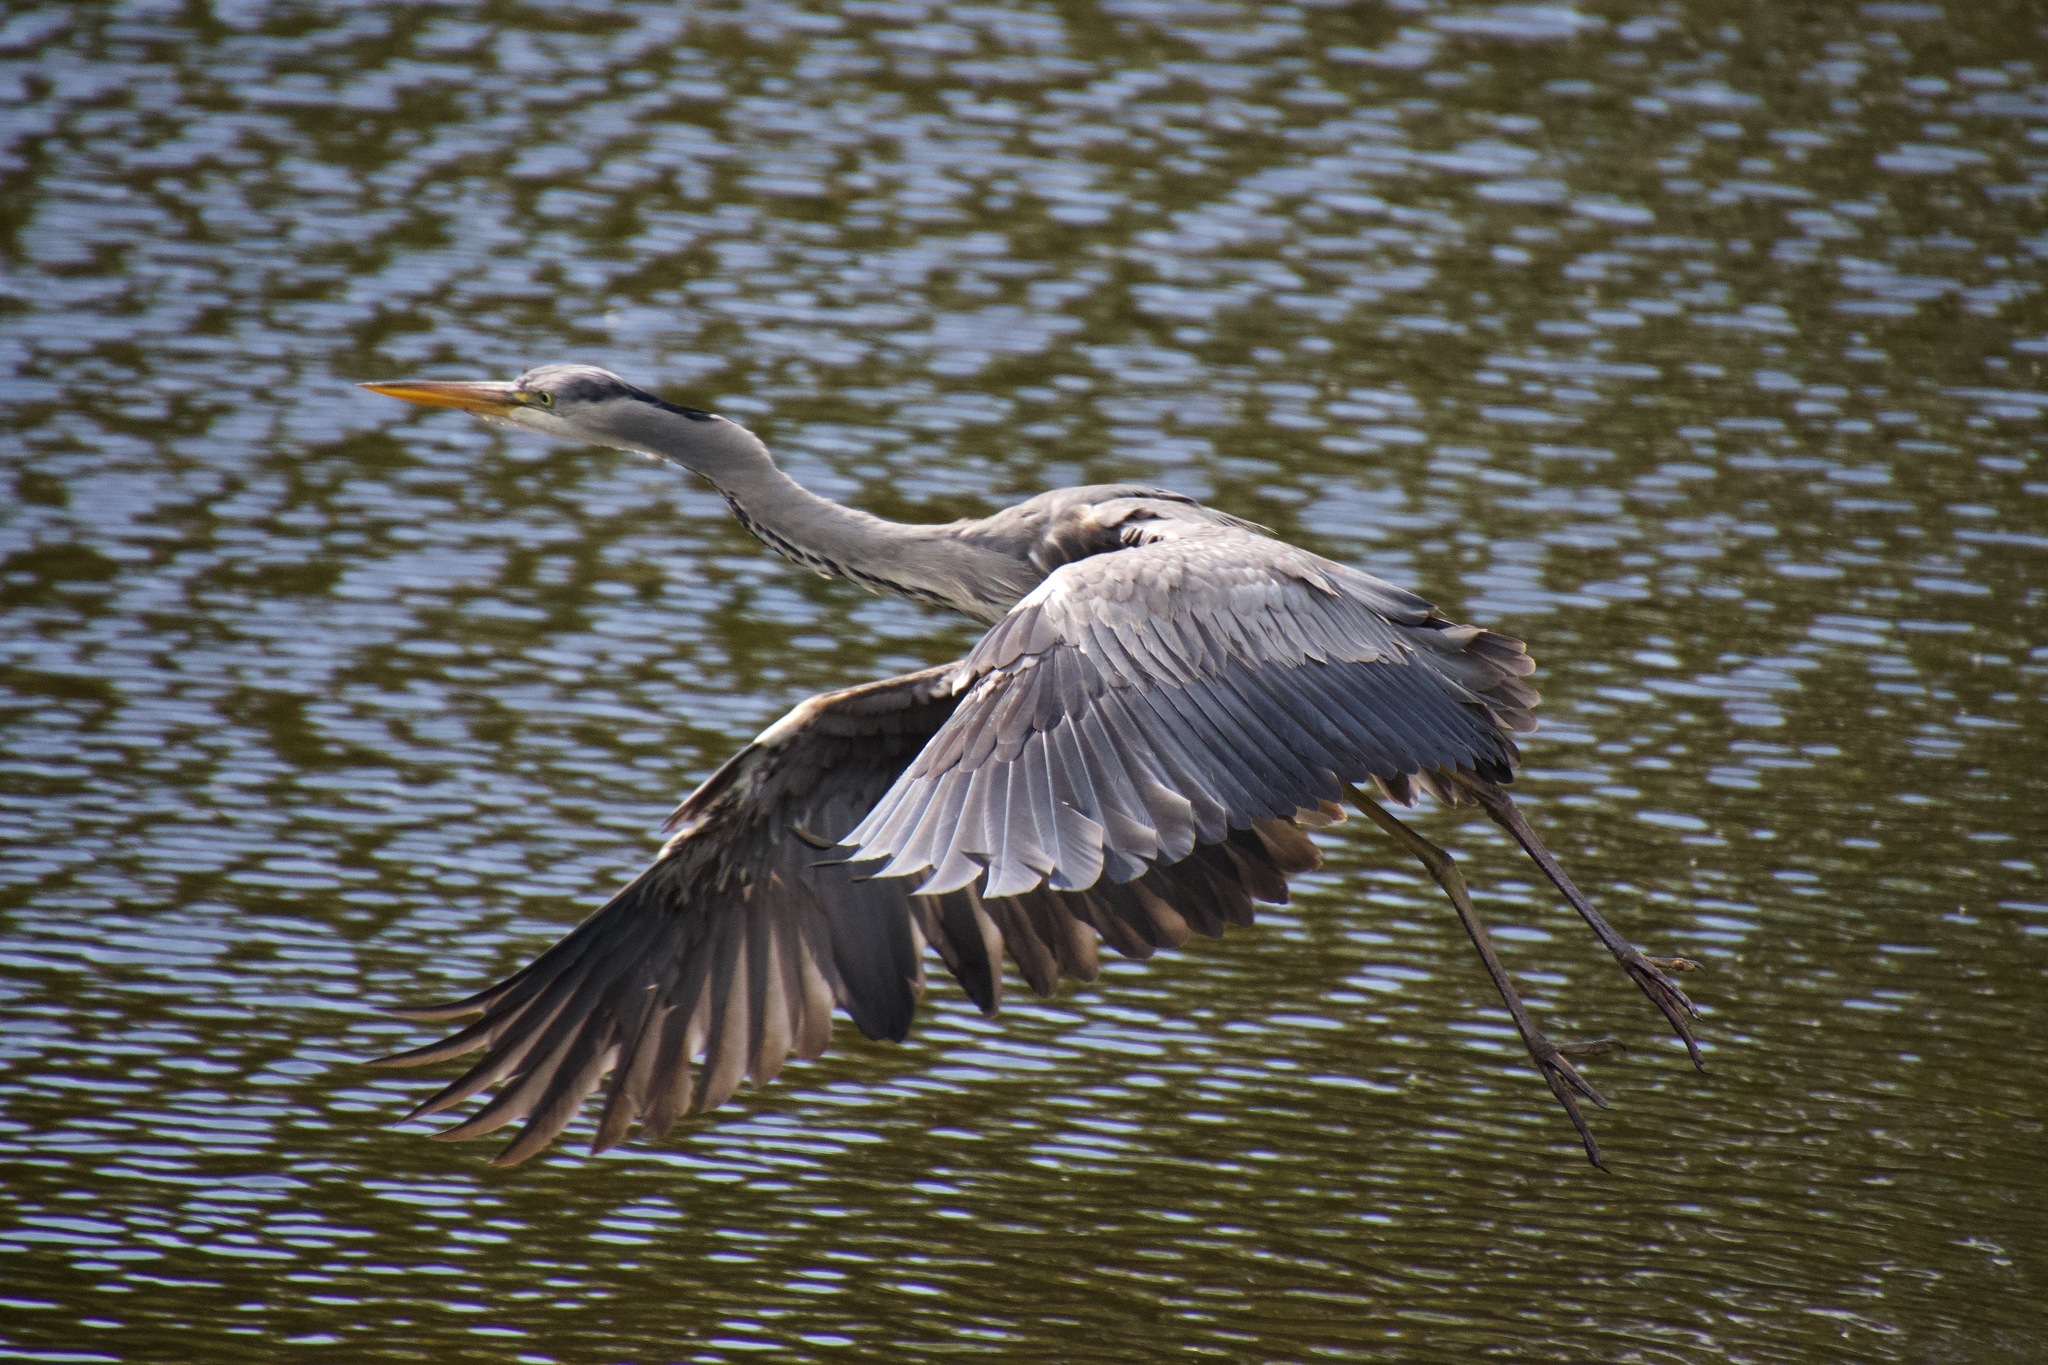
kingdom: Animalia
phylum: Chordata
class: Aves
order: Pelecaniformes
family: Ardeidae
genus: Ardea
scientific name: Ardea cinerea
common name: Grey heron
